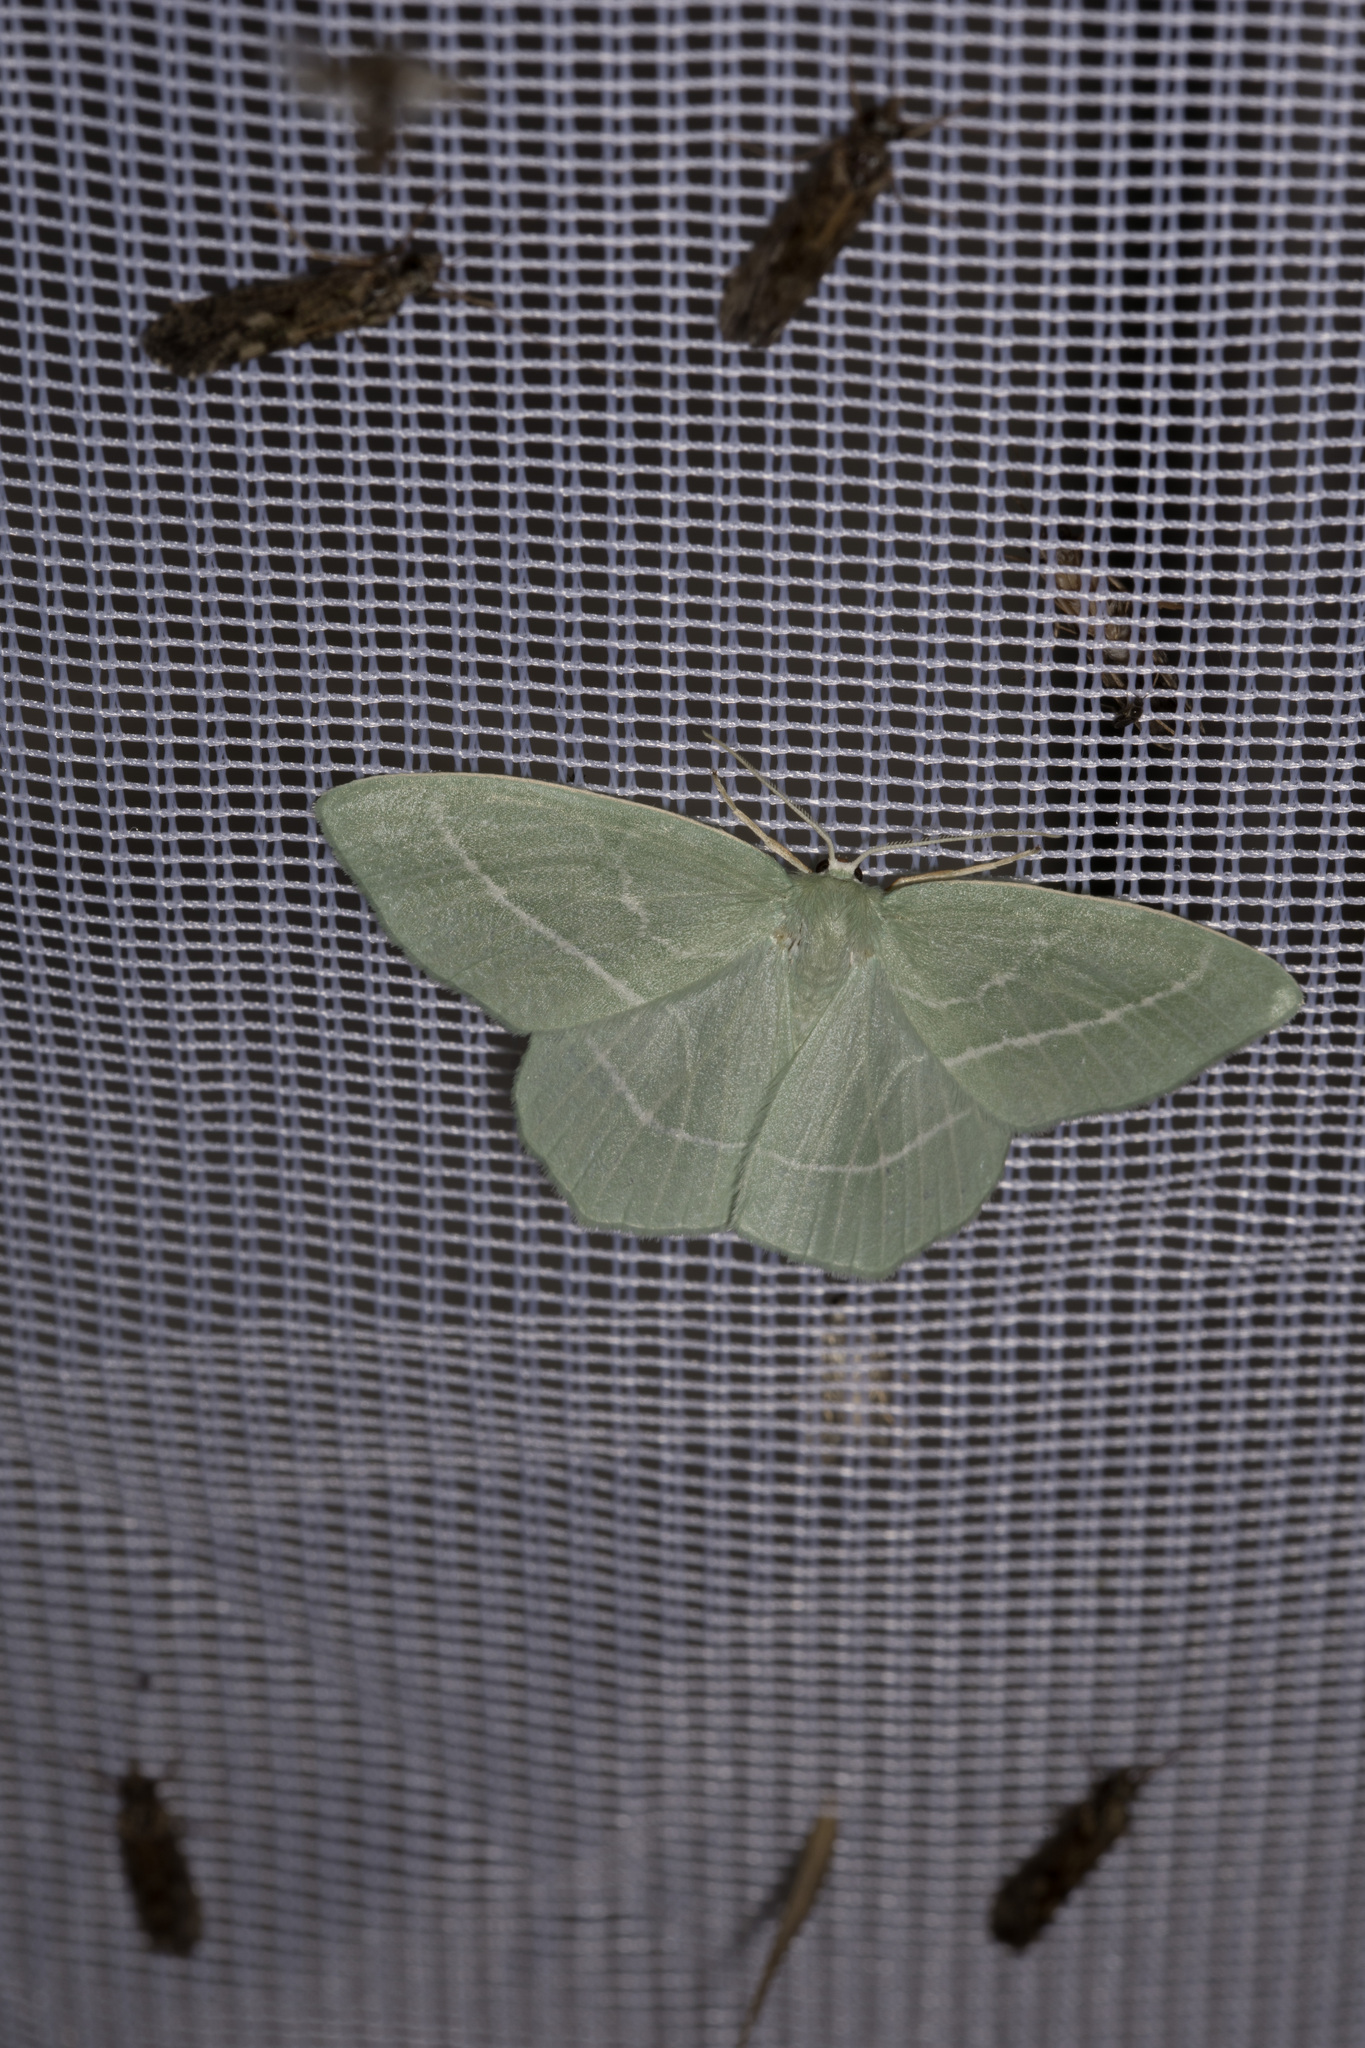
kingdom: Animalia
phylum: Arthropoda
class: Insecta
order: Lepidoptera
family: Geometridae
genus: Hemistola
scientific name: Hemistola chrysoprasaria
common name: Small emerald
